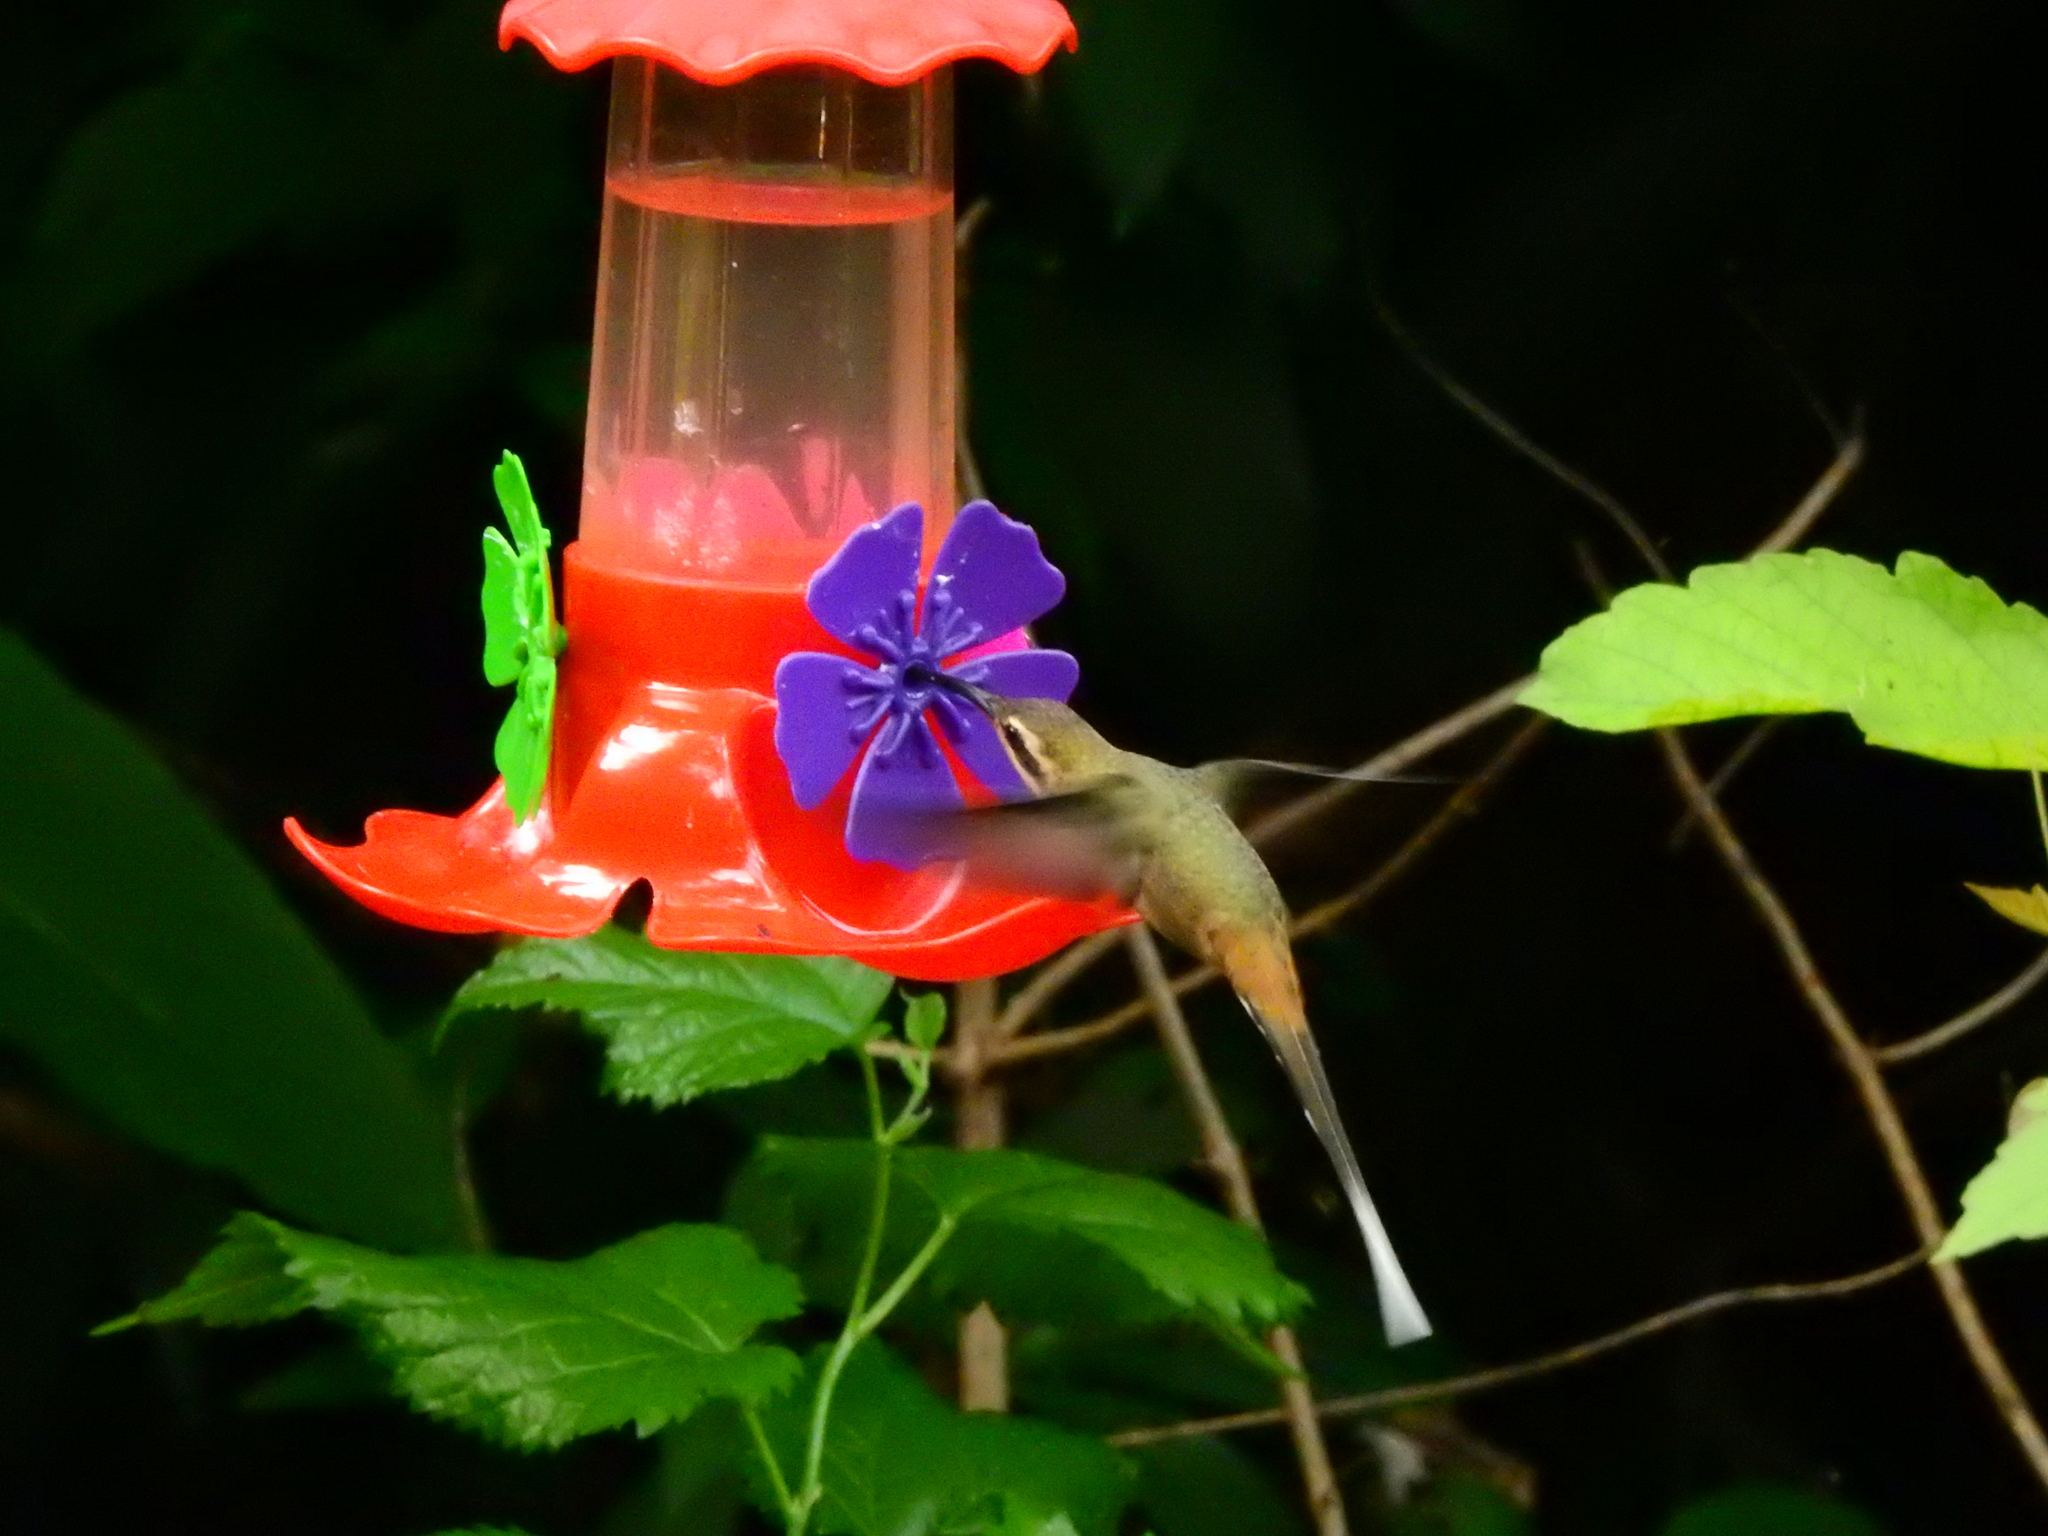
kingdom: Animalia
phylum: Chordata
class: Aves
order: Apodiformes
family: Trochilidae
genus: Phaethornis
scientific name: Phaethornis pretrei
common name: Planalto hermit
